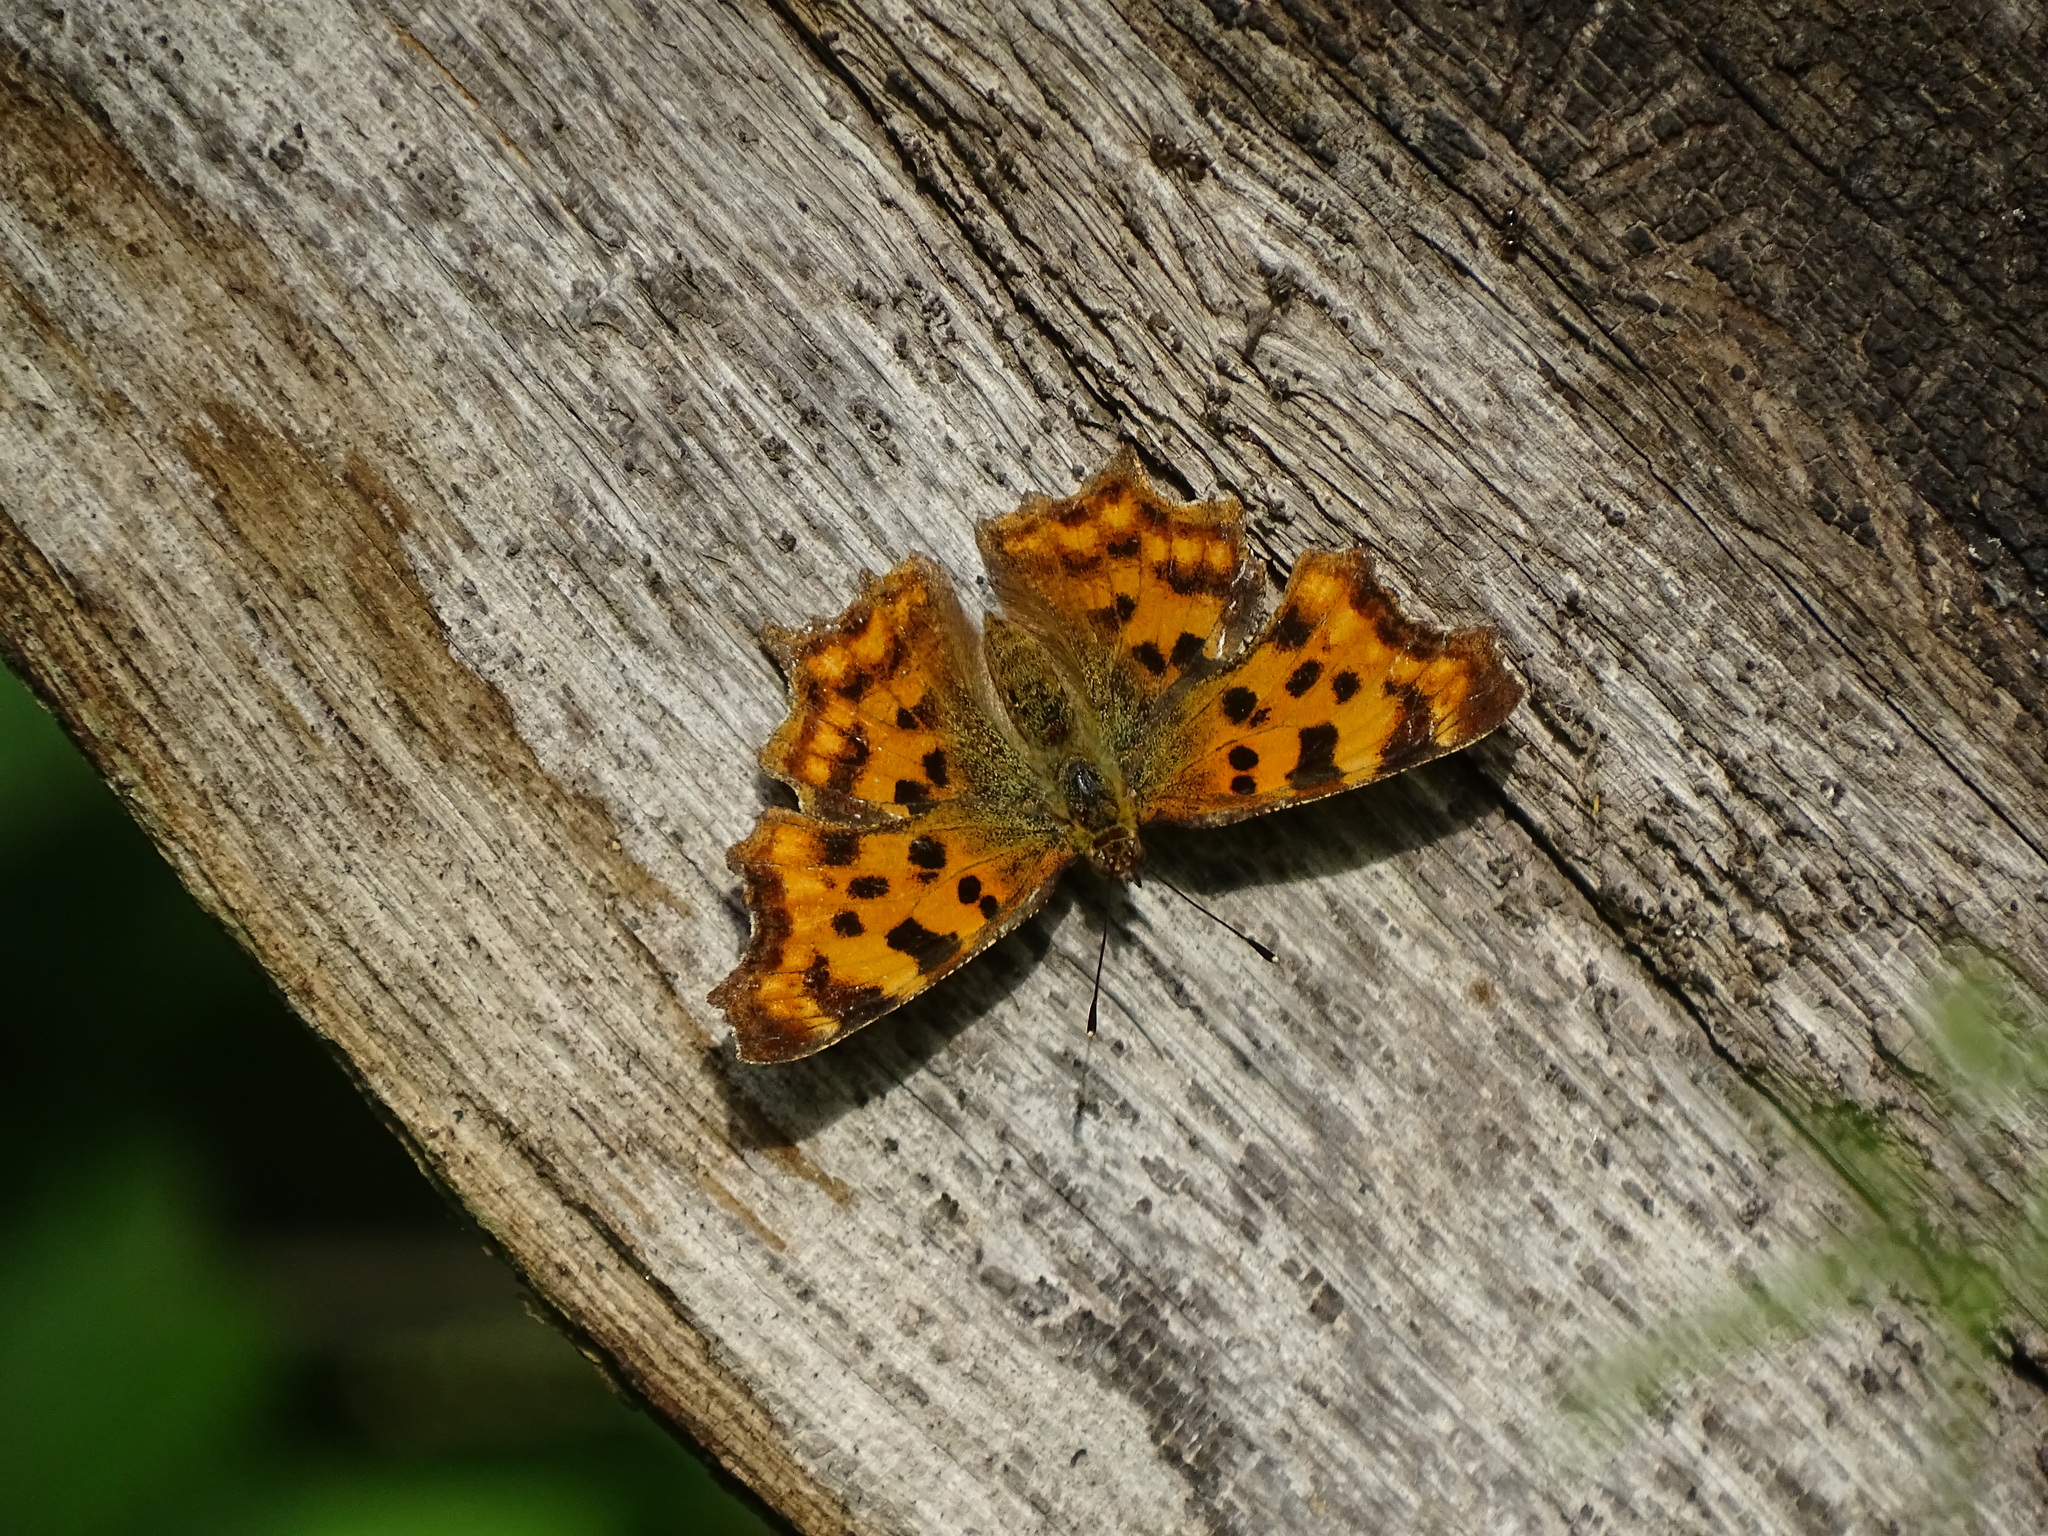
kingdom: Animalia
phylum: Arthropoda
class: Insecta
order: Lepidoptera
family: Nymphalidae
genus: Polygonia
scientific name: Polygonia c-album
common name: Comma
